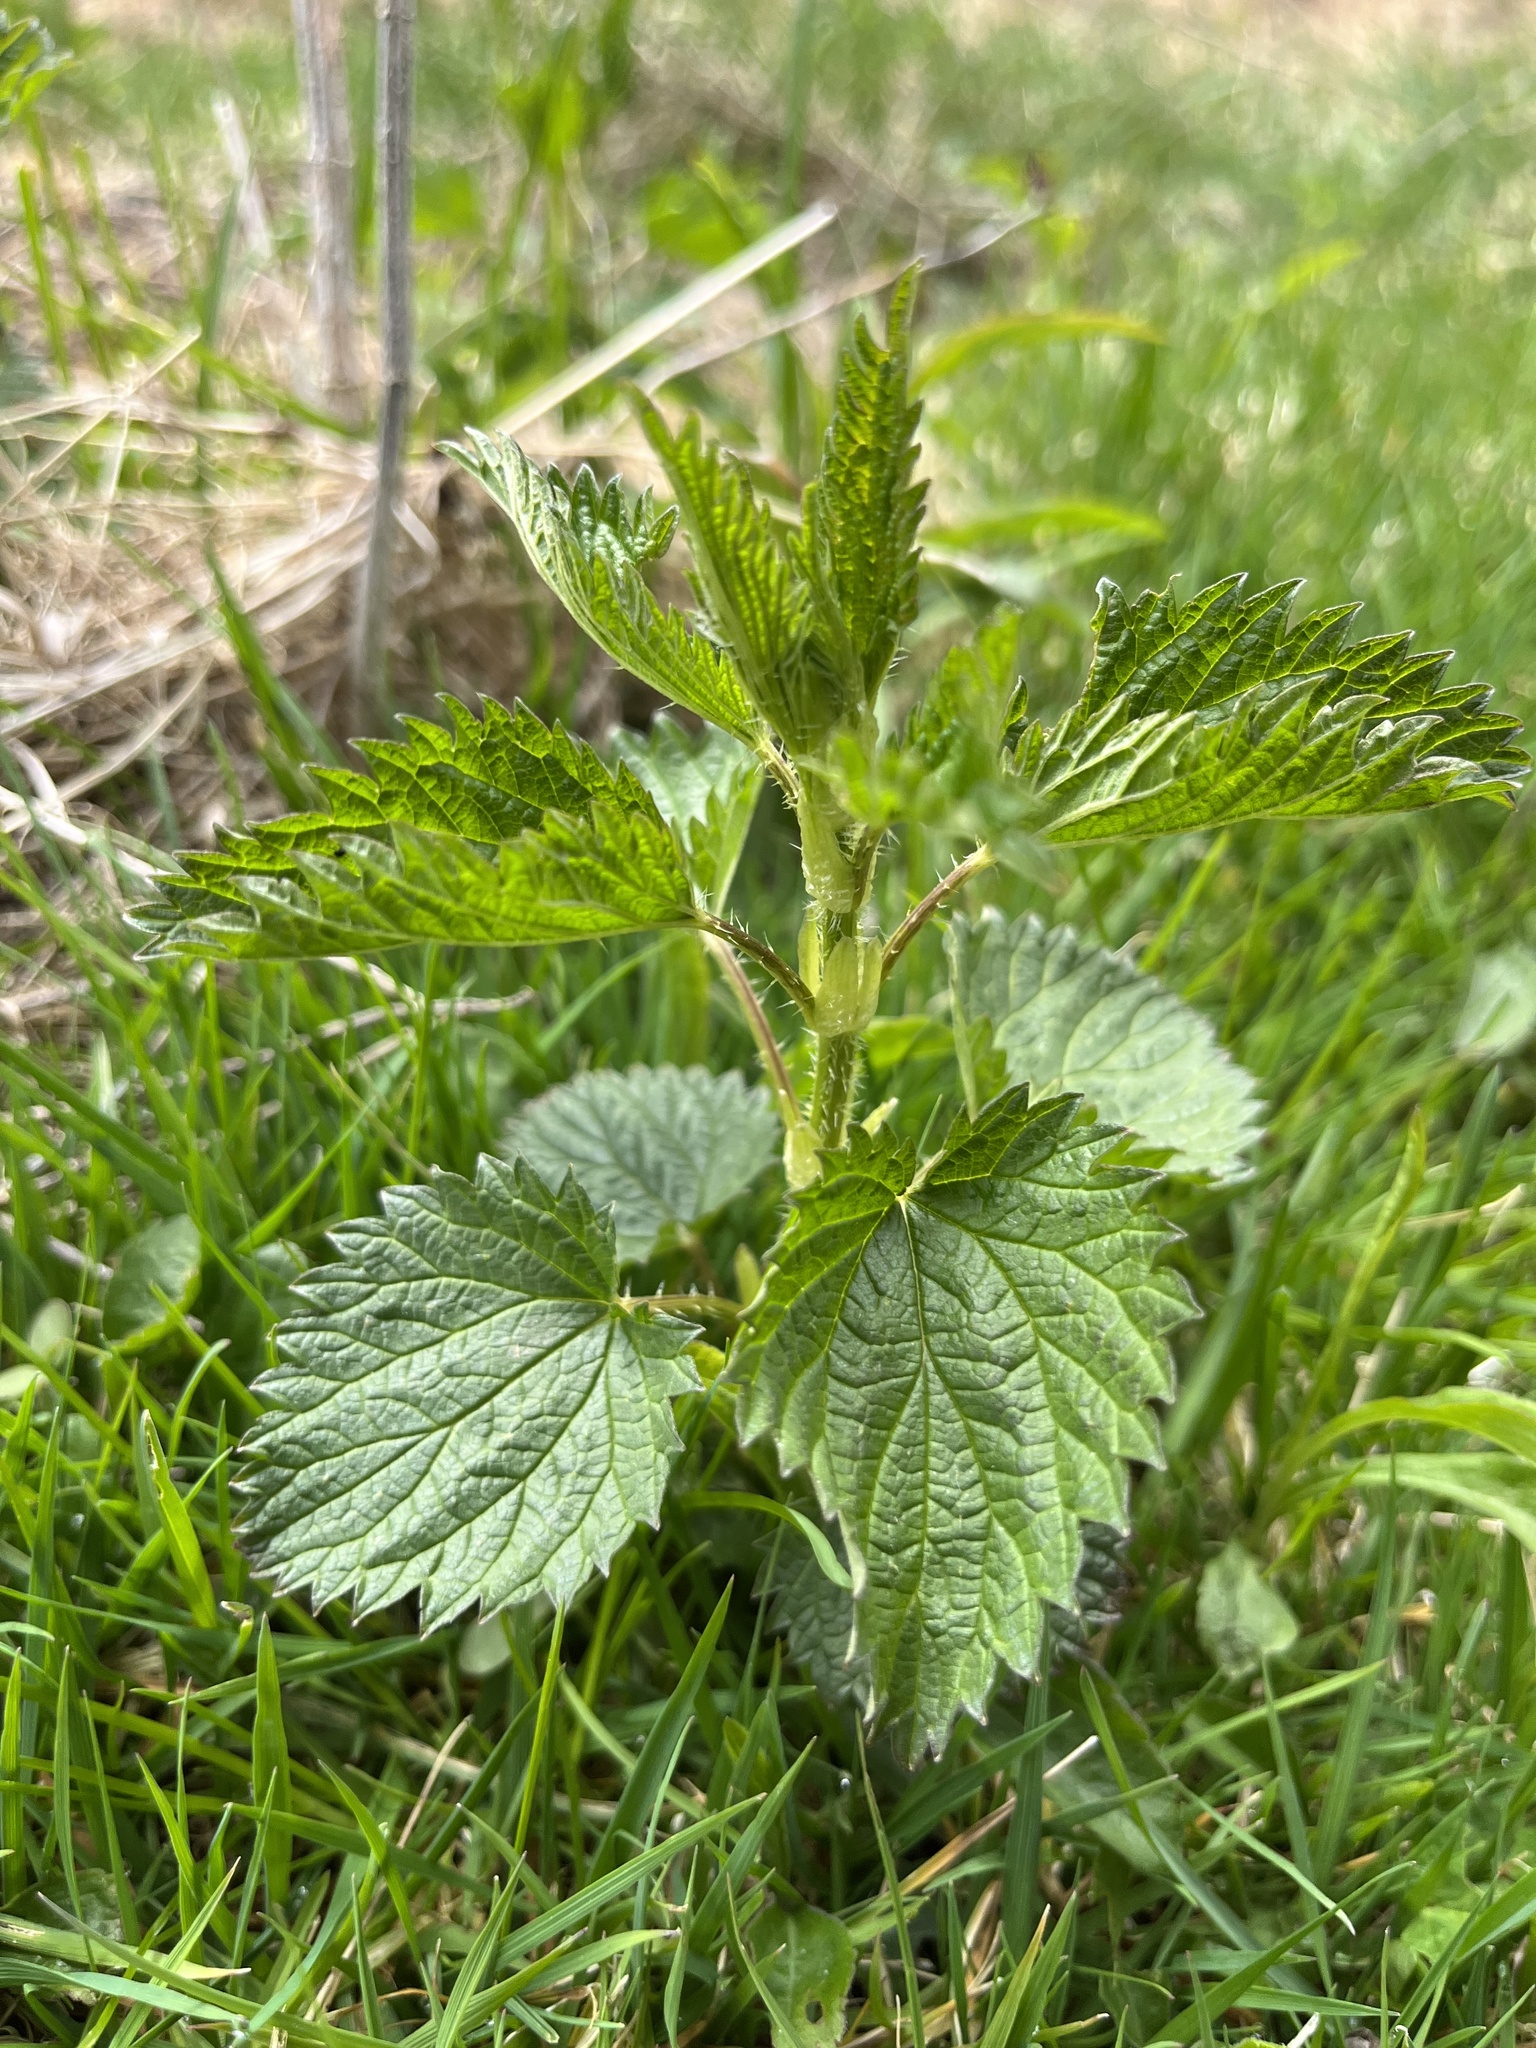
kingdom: Plantae
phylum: Tracheophyta
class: Magnoliopsida
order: Rosales
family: Urticaceae
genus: Urtica
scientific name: Urtica dioica
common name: Common nettle
